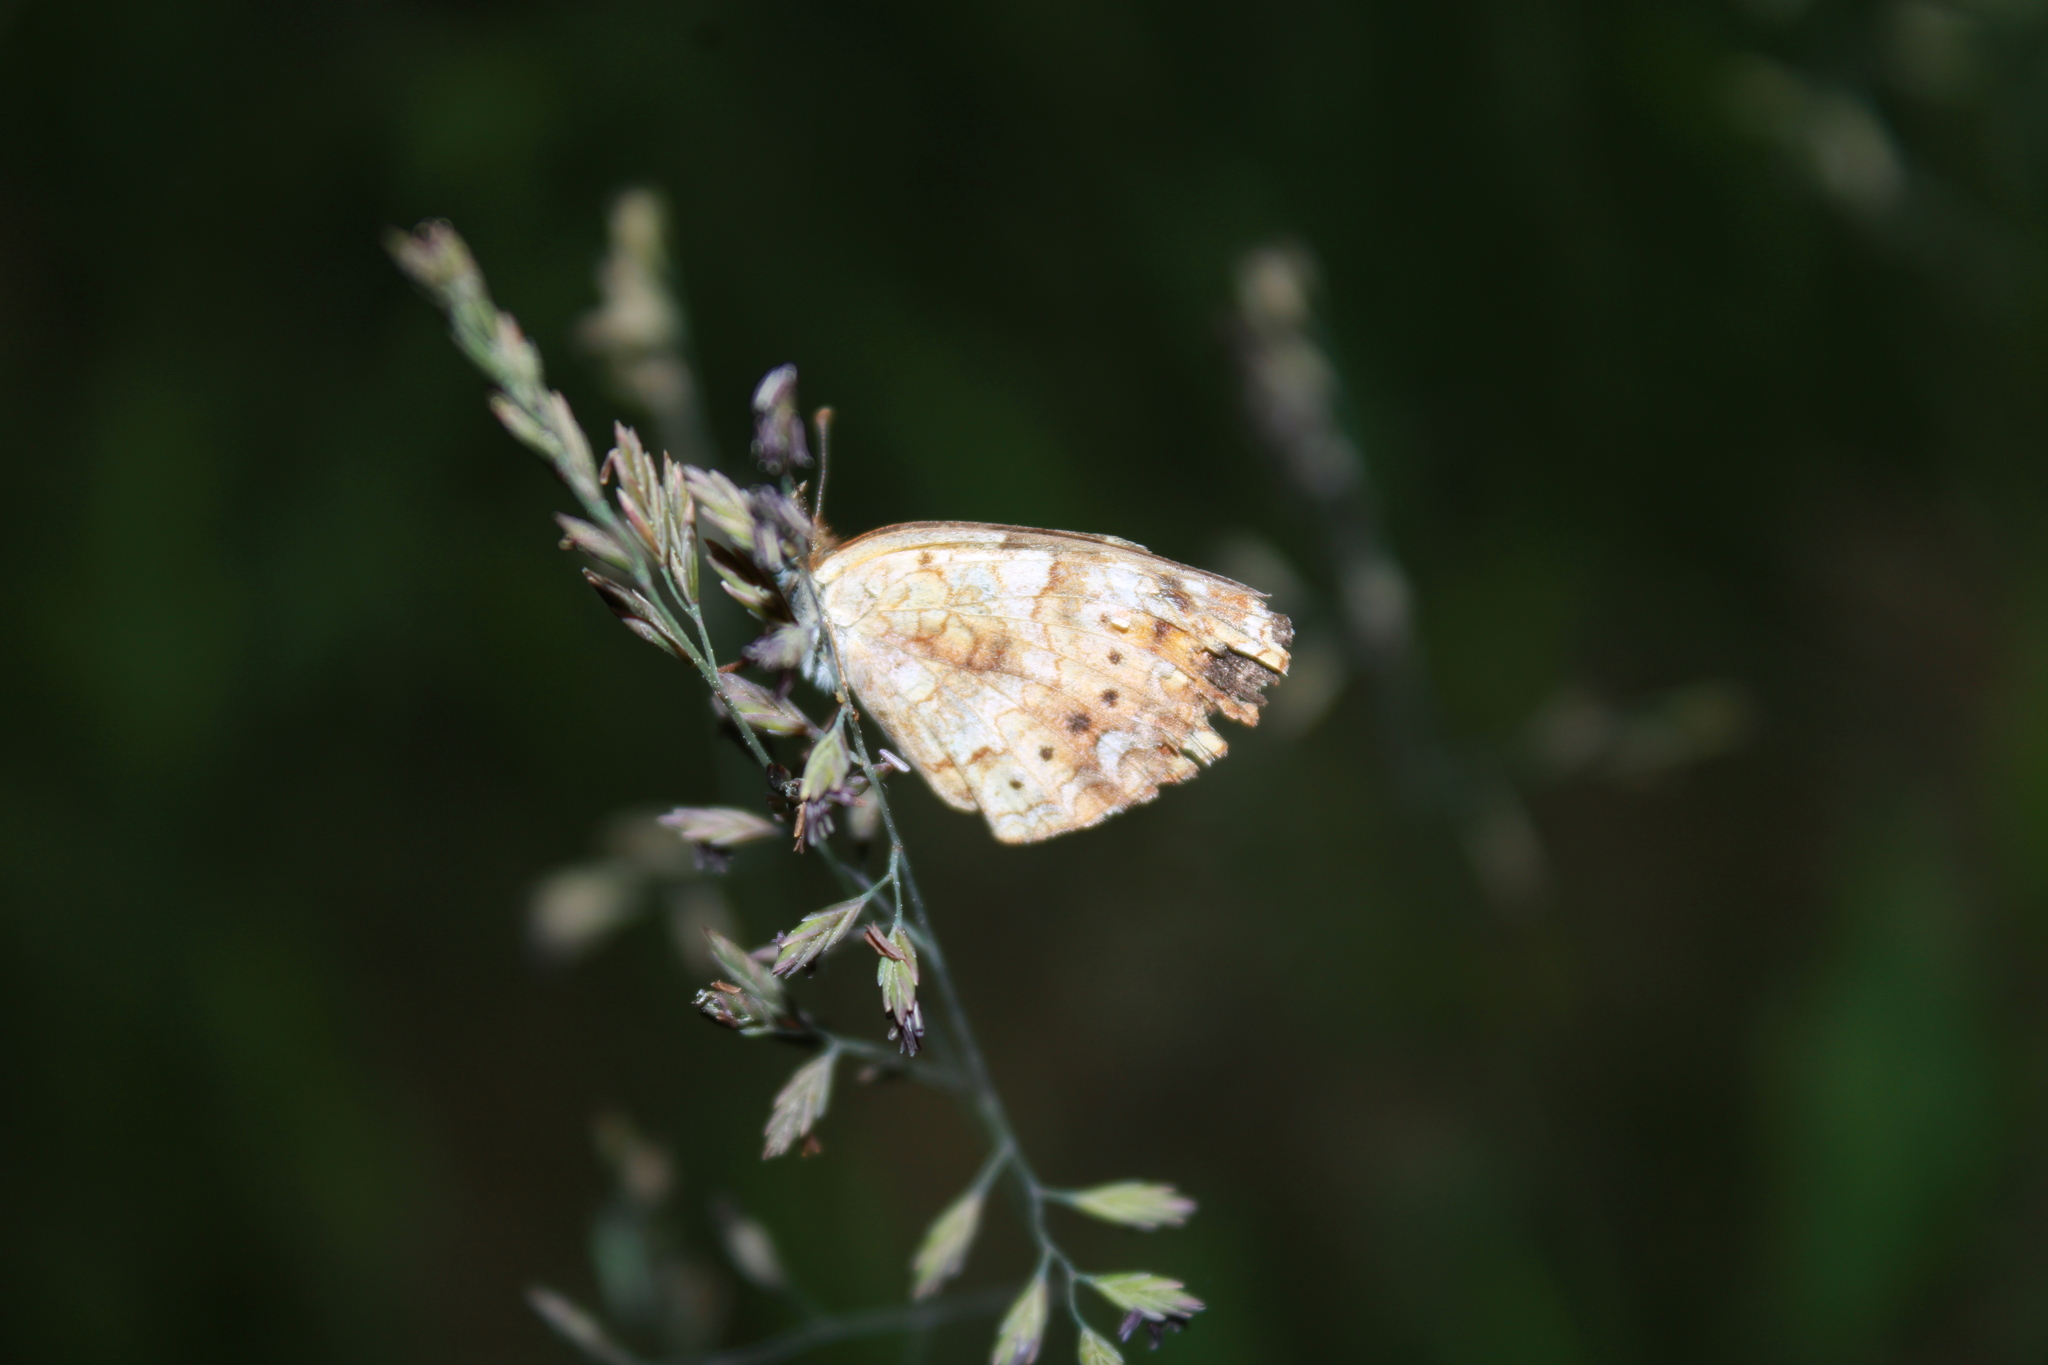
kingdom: Animalia
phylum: Arthropoda
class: Insecta
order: Lepidoptera
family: Nymphalidae
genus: Phyciodes
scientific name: Phyciodes tharos
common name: Pearl crescent
